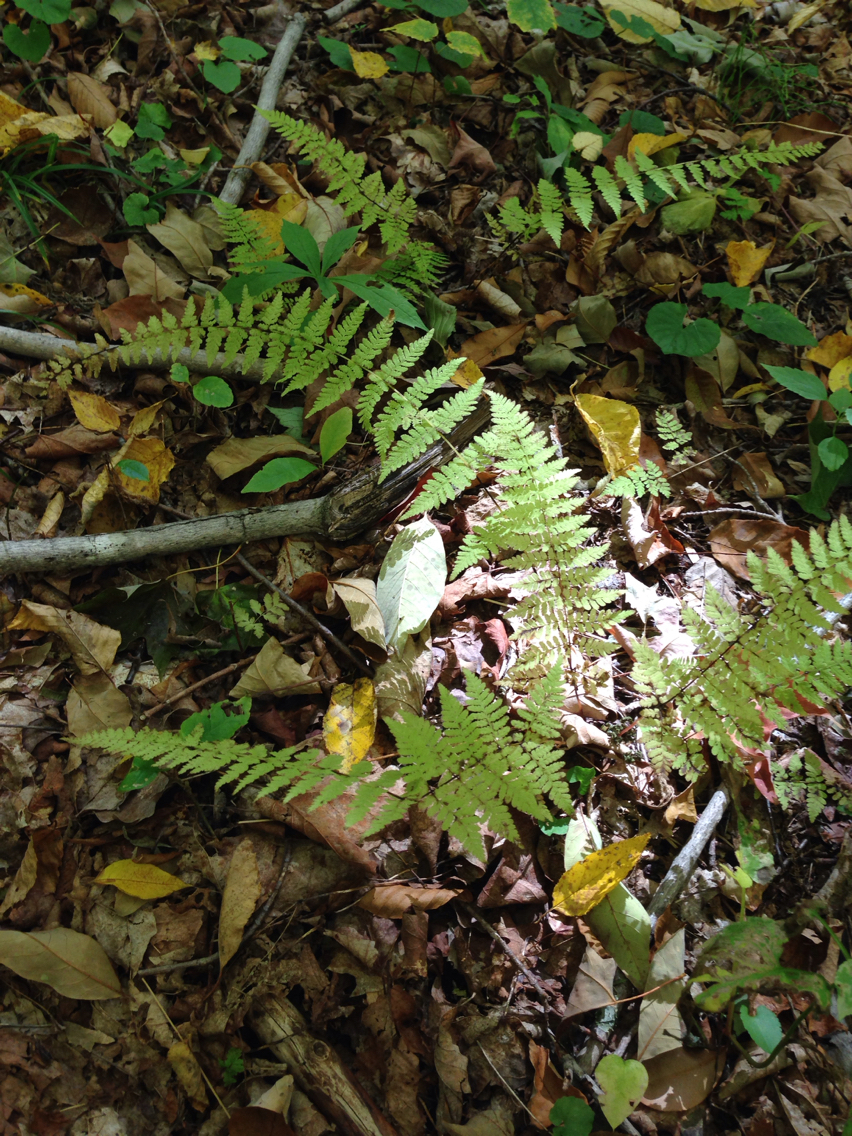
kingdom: Plantae
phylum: Tracheophyta
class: Polypodiopsida
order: Polypodiales
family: Cystopteridaceae
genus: Cystopteris
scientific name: Cystopteris bulbifera
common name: Bulblet bladder fern
